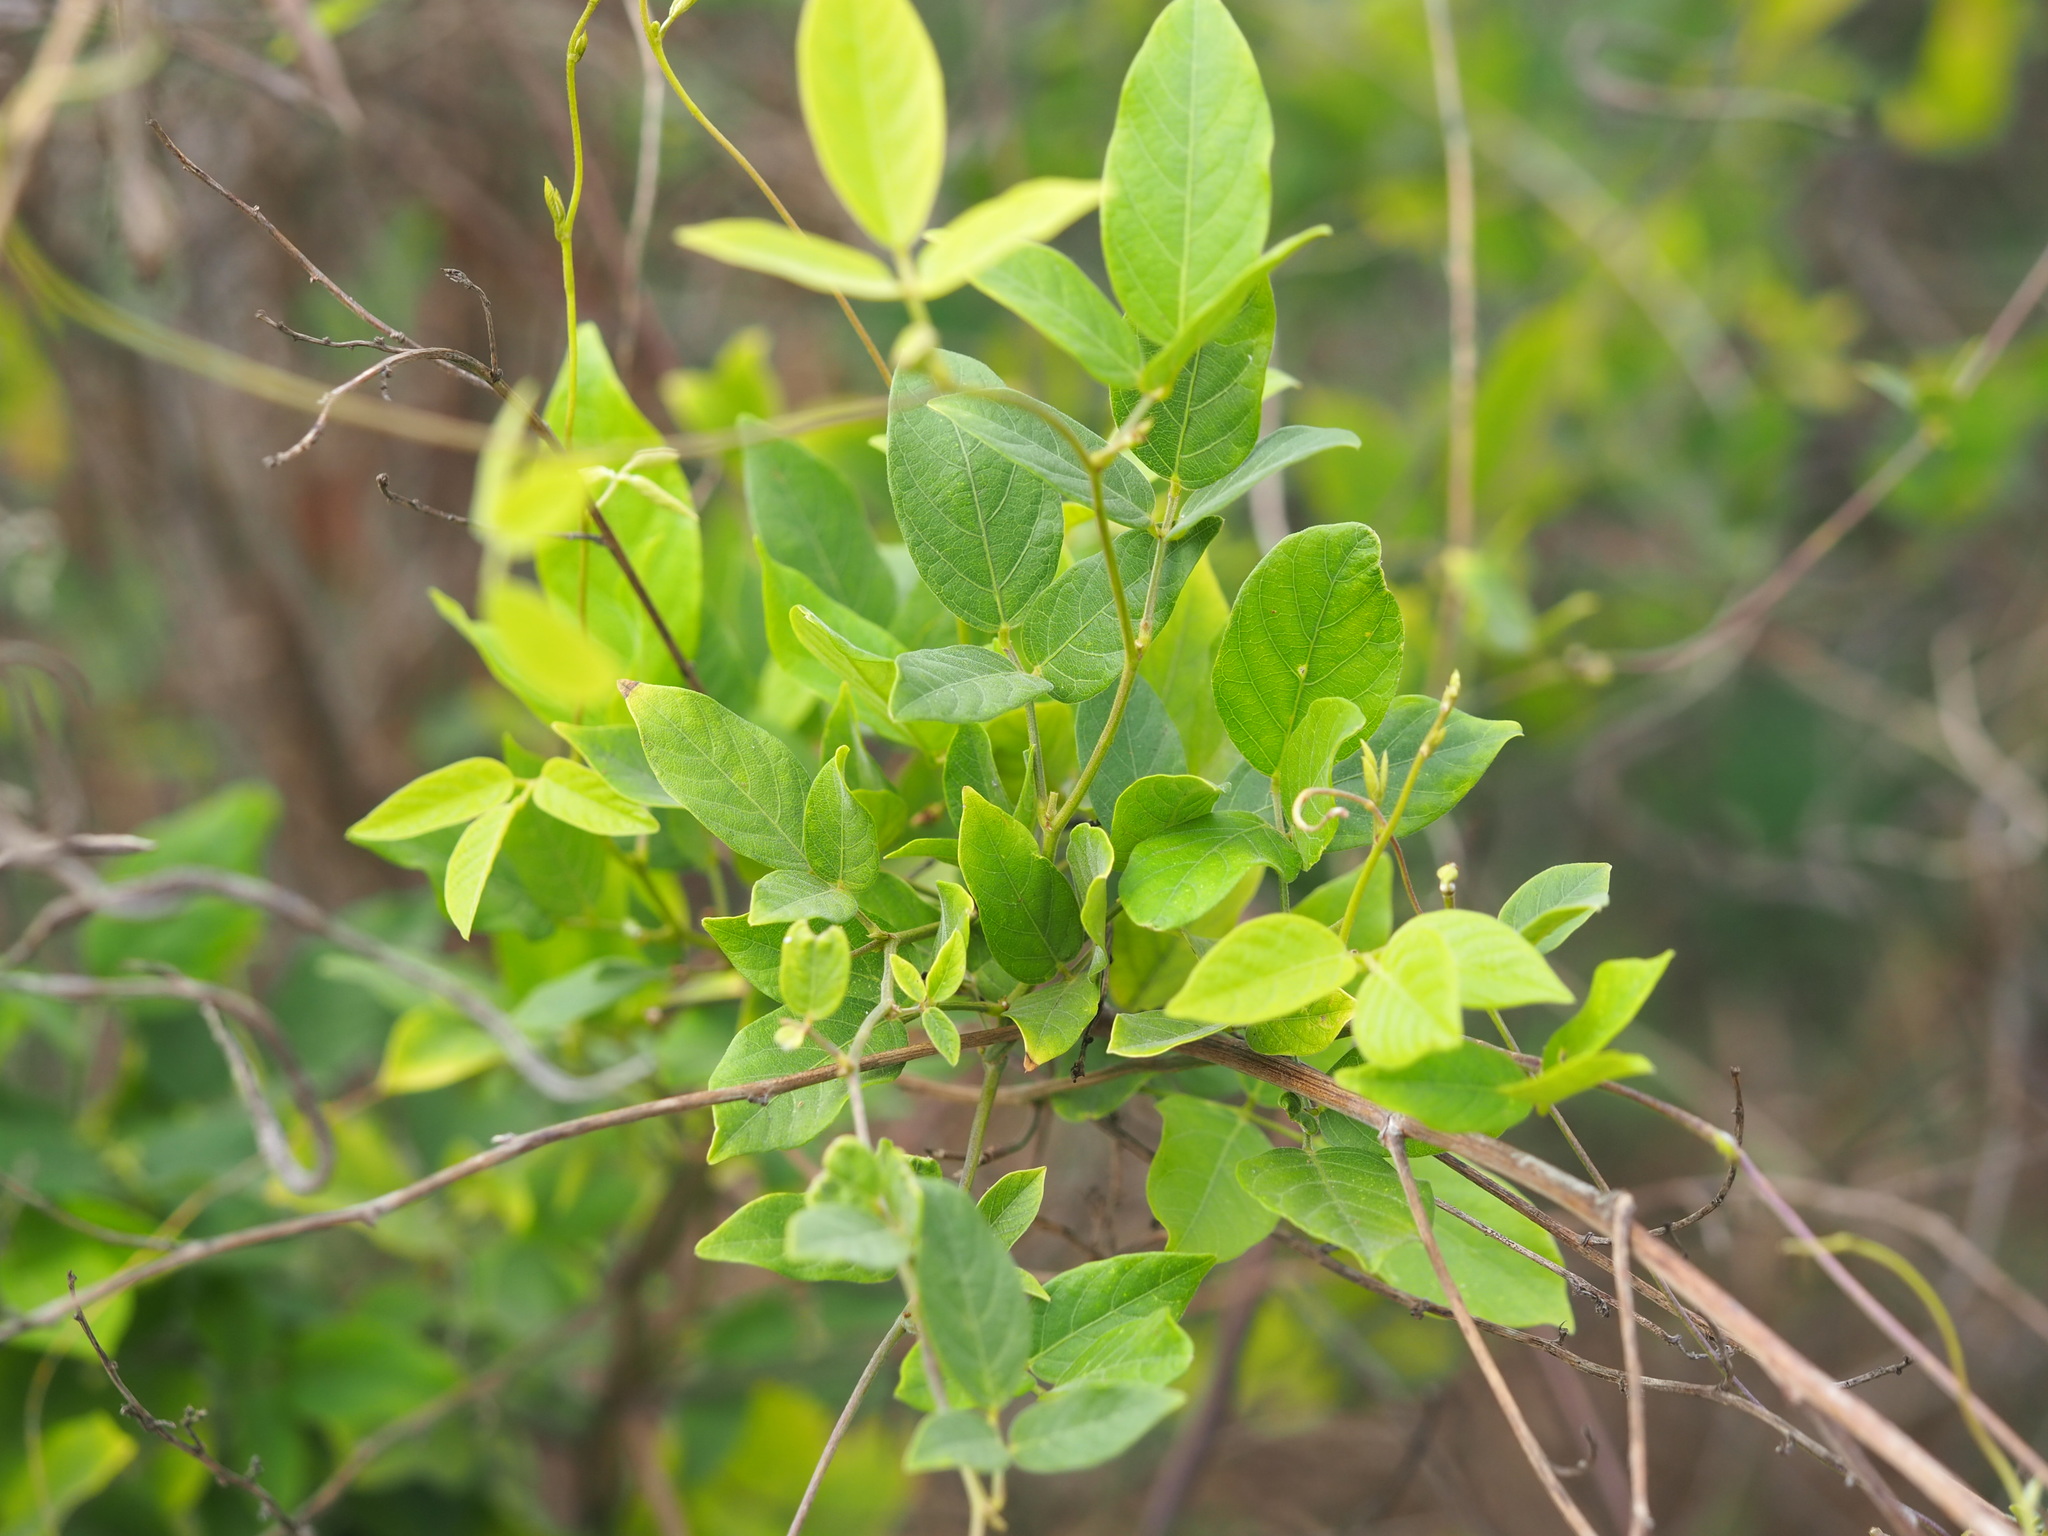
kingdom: Plantae
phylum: Tracheophyta
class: Magnoliopsida
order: Fabales
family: Fabaceae
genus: Centrosema
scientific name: Centrosema pubescens
